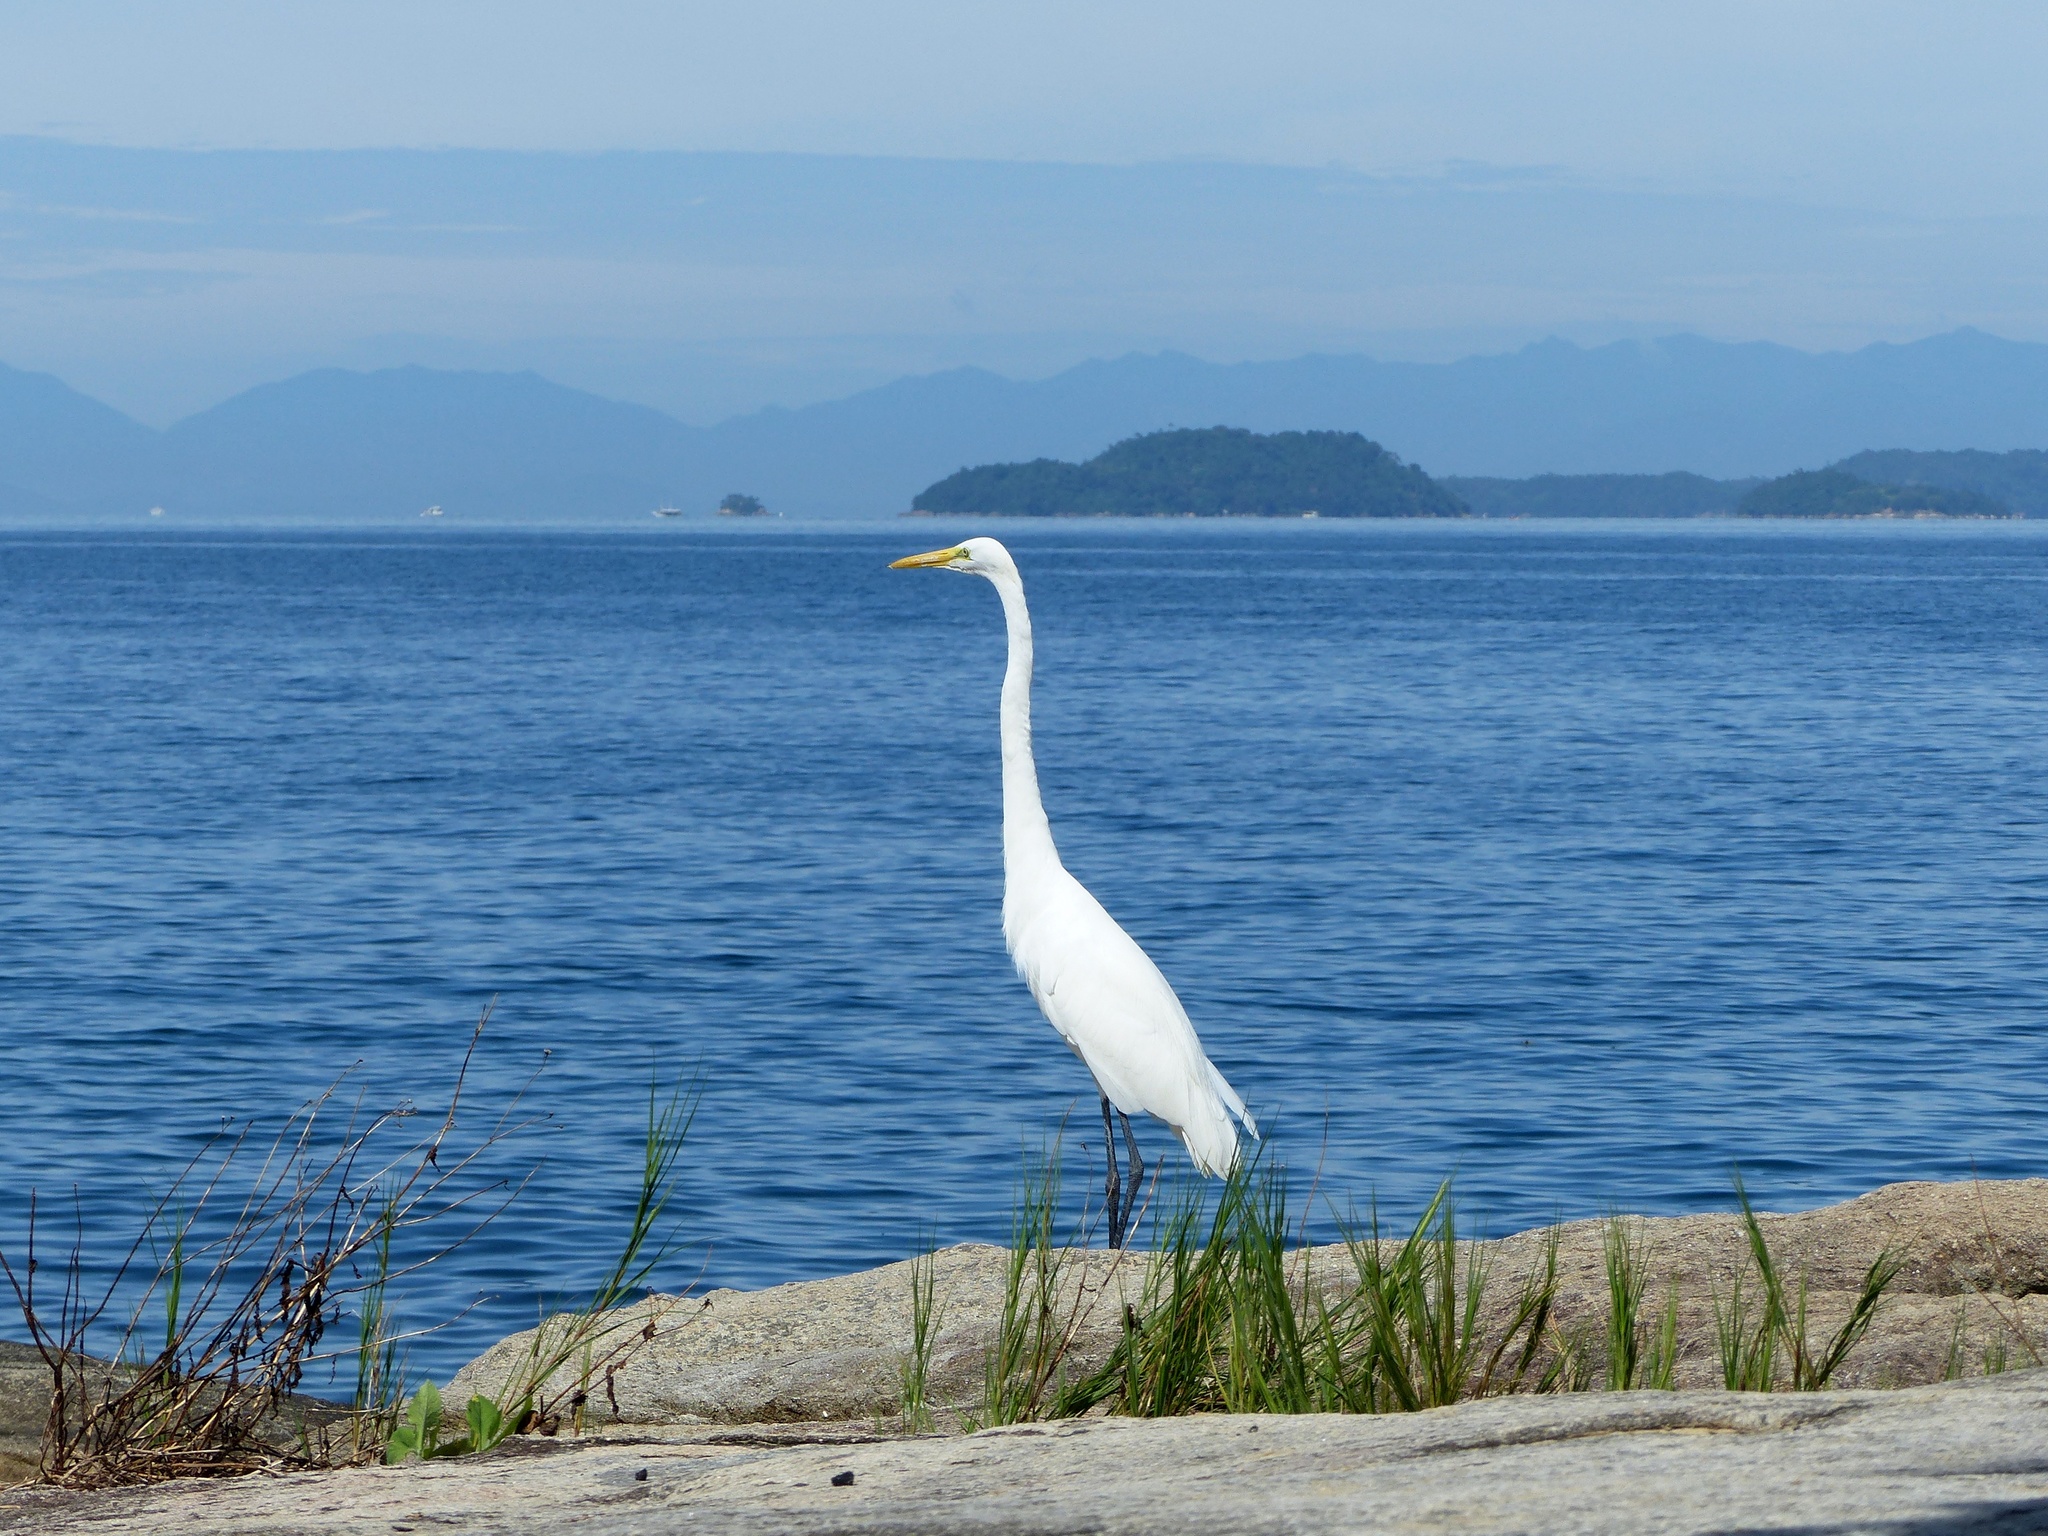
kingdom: Animalia
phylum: Chordata
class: Aves
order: Pelecaniformes
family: Ardeidae
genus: Ardea
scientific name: Ardea alba
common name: Great egret
